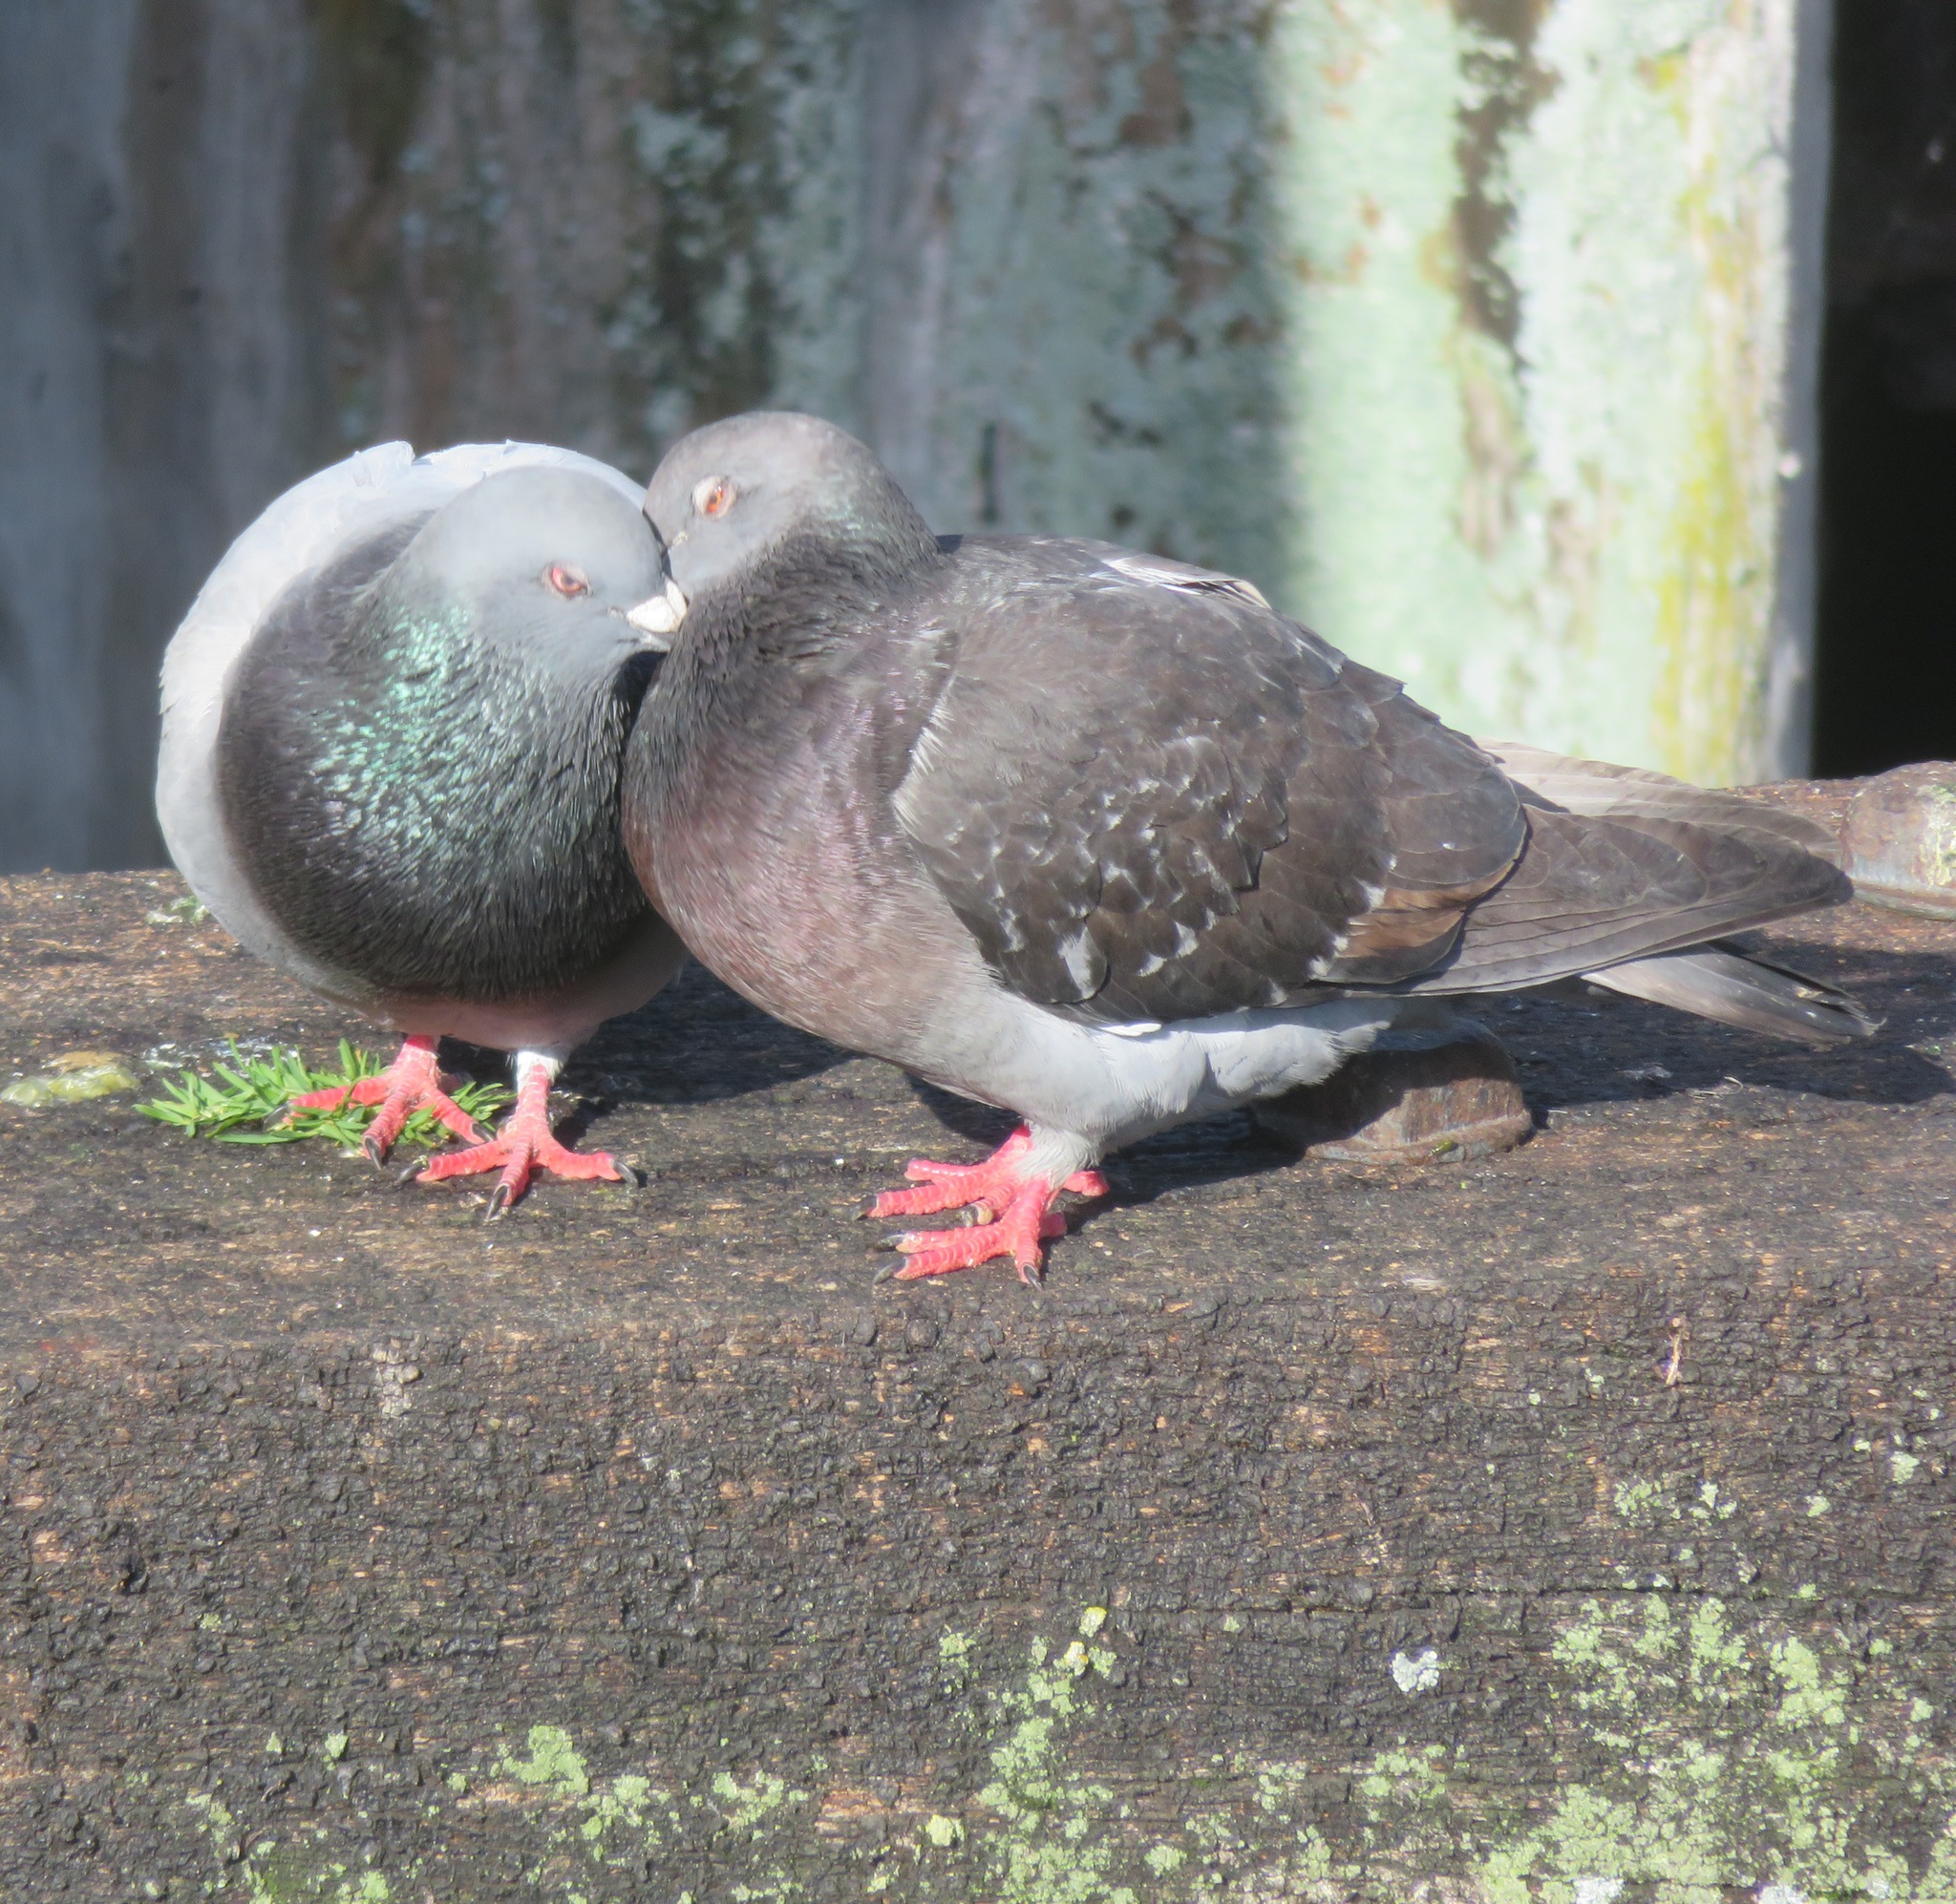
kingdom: Animalia
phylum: Chordata
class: Aves
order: Columbiformes
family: Columbidae
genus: Columba
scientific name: Columba livia
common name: Rock pigeon
